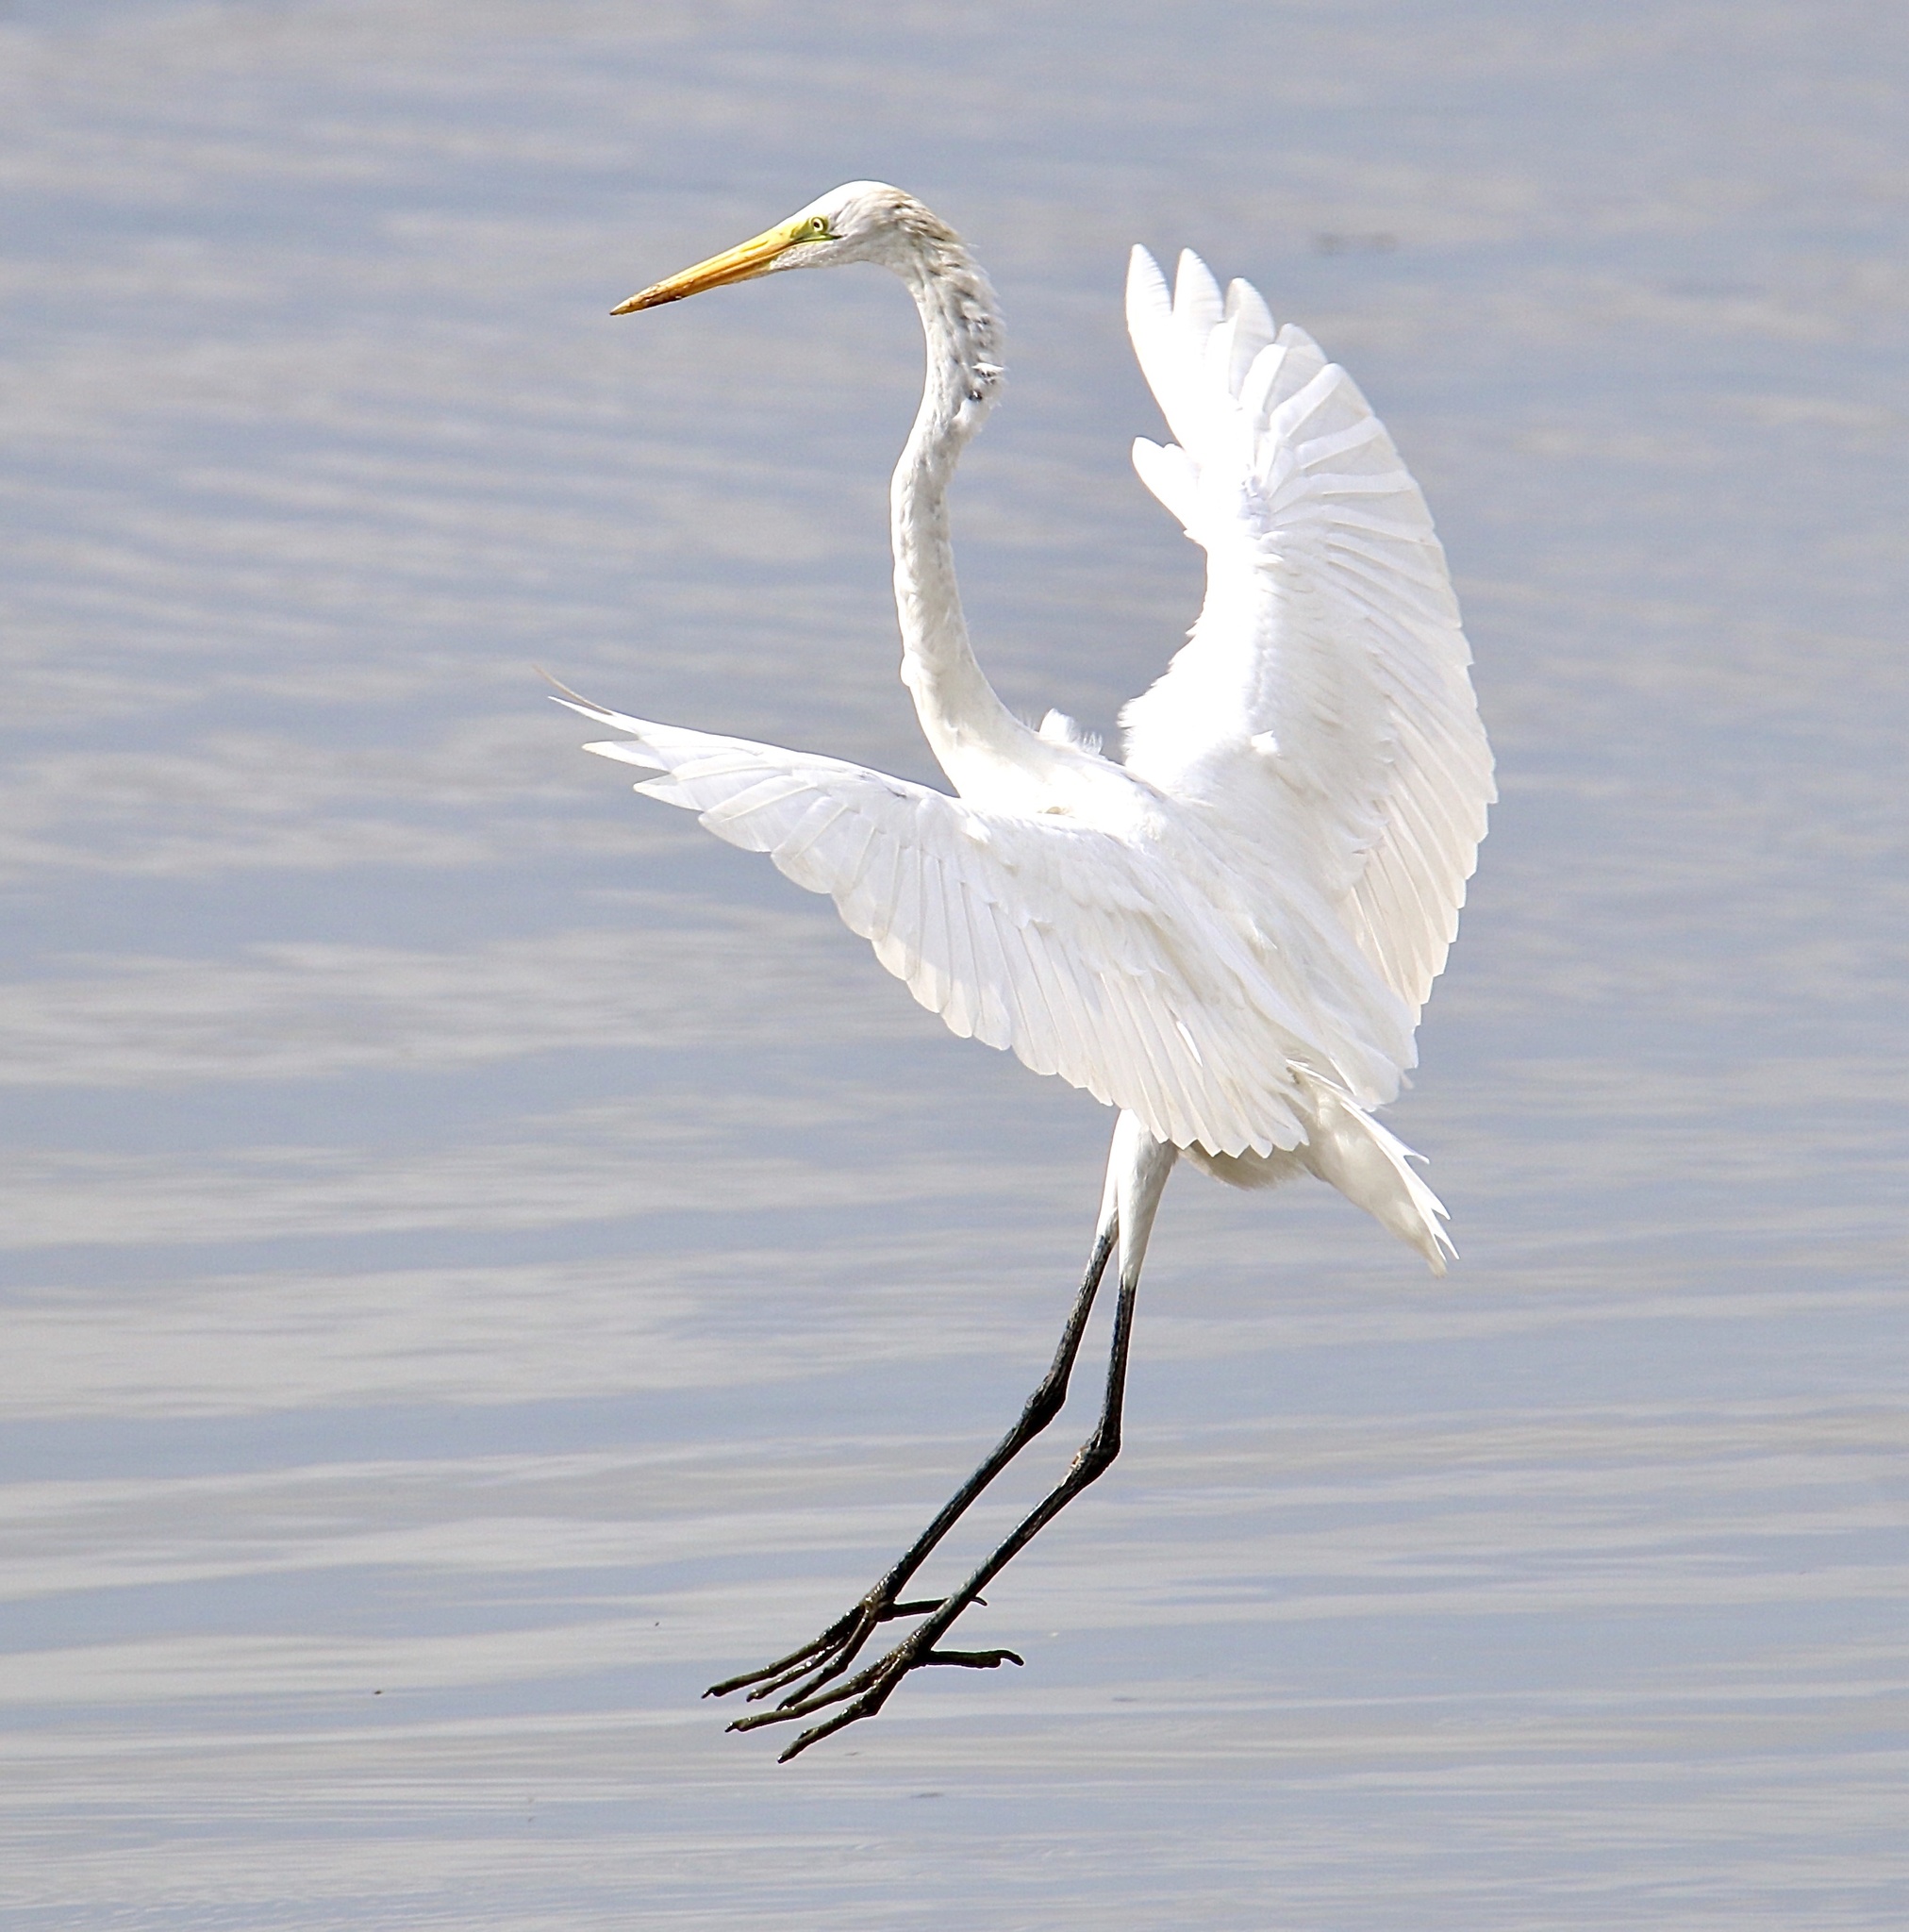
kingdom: Animalia
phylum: Chordata
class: Aves
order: Pelecaniformes
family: Ardeidae
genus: Ardea
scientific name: Ardea alba
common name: Great egret
